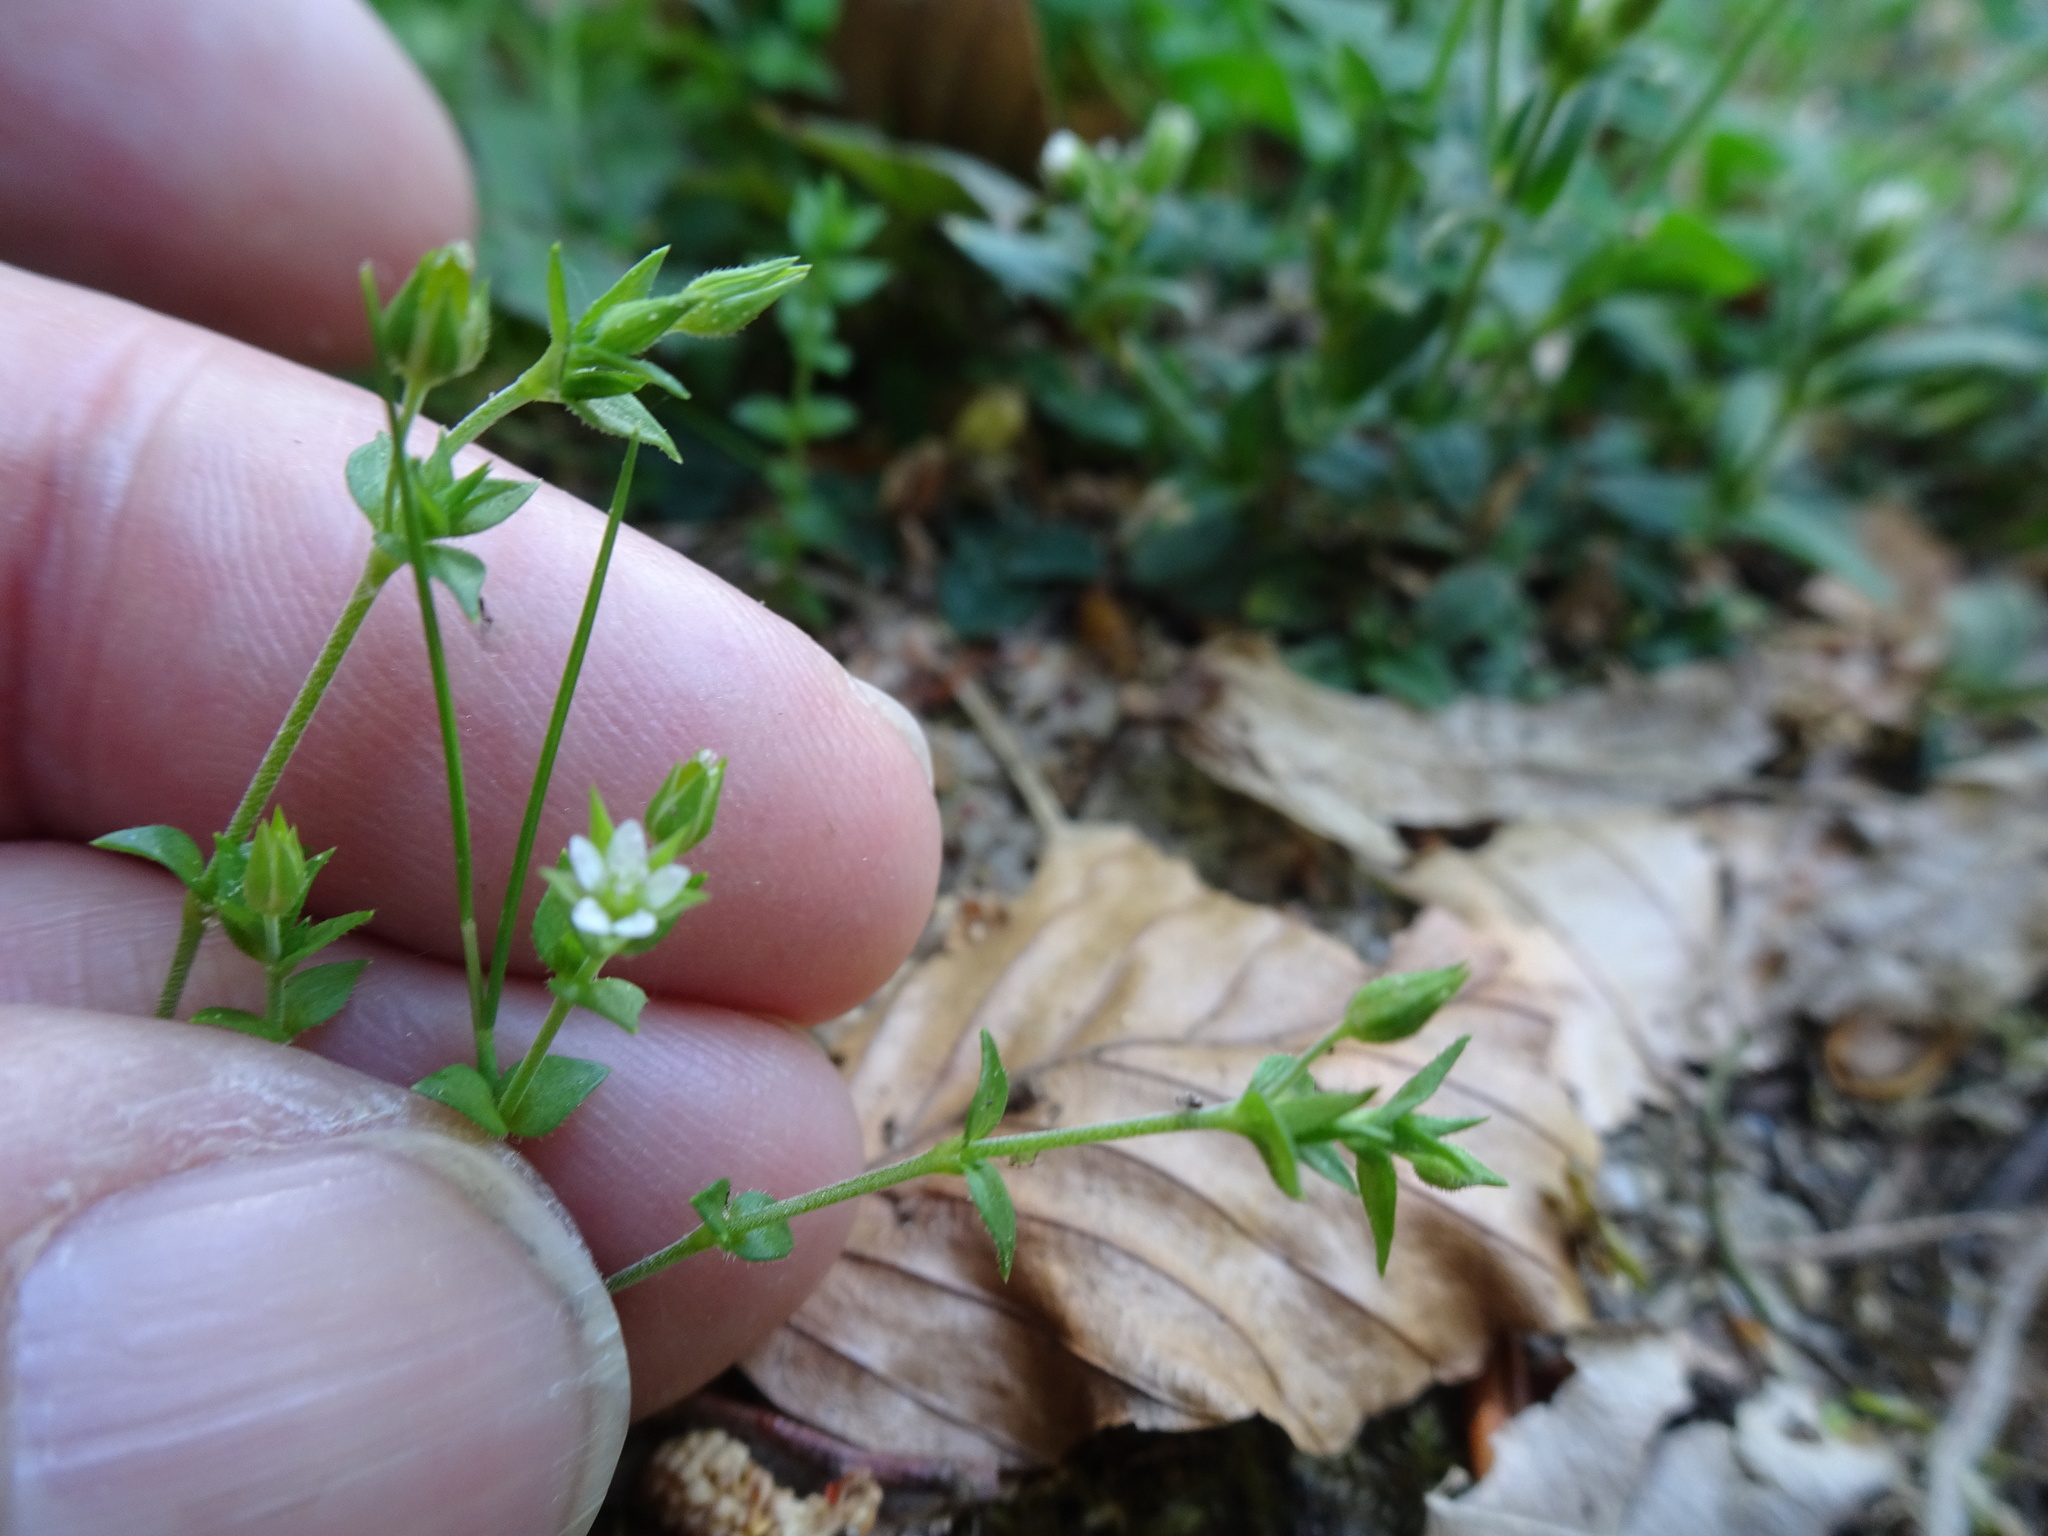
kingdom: Plantae
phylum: Tracheophyta
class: Magnoliopsida
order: Caryophyllales
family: Caryophyllaceae
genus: Arenaria
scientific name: Arenaria serpyllifolia
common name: Thyme-leaved sandwort
